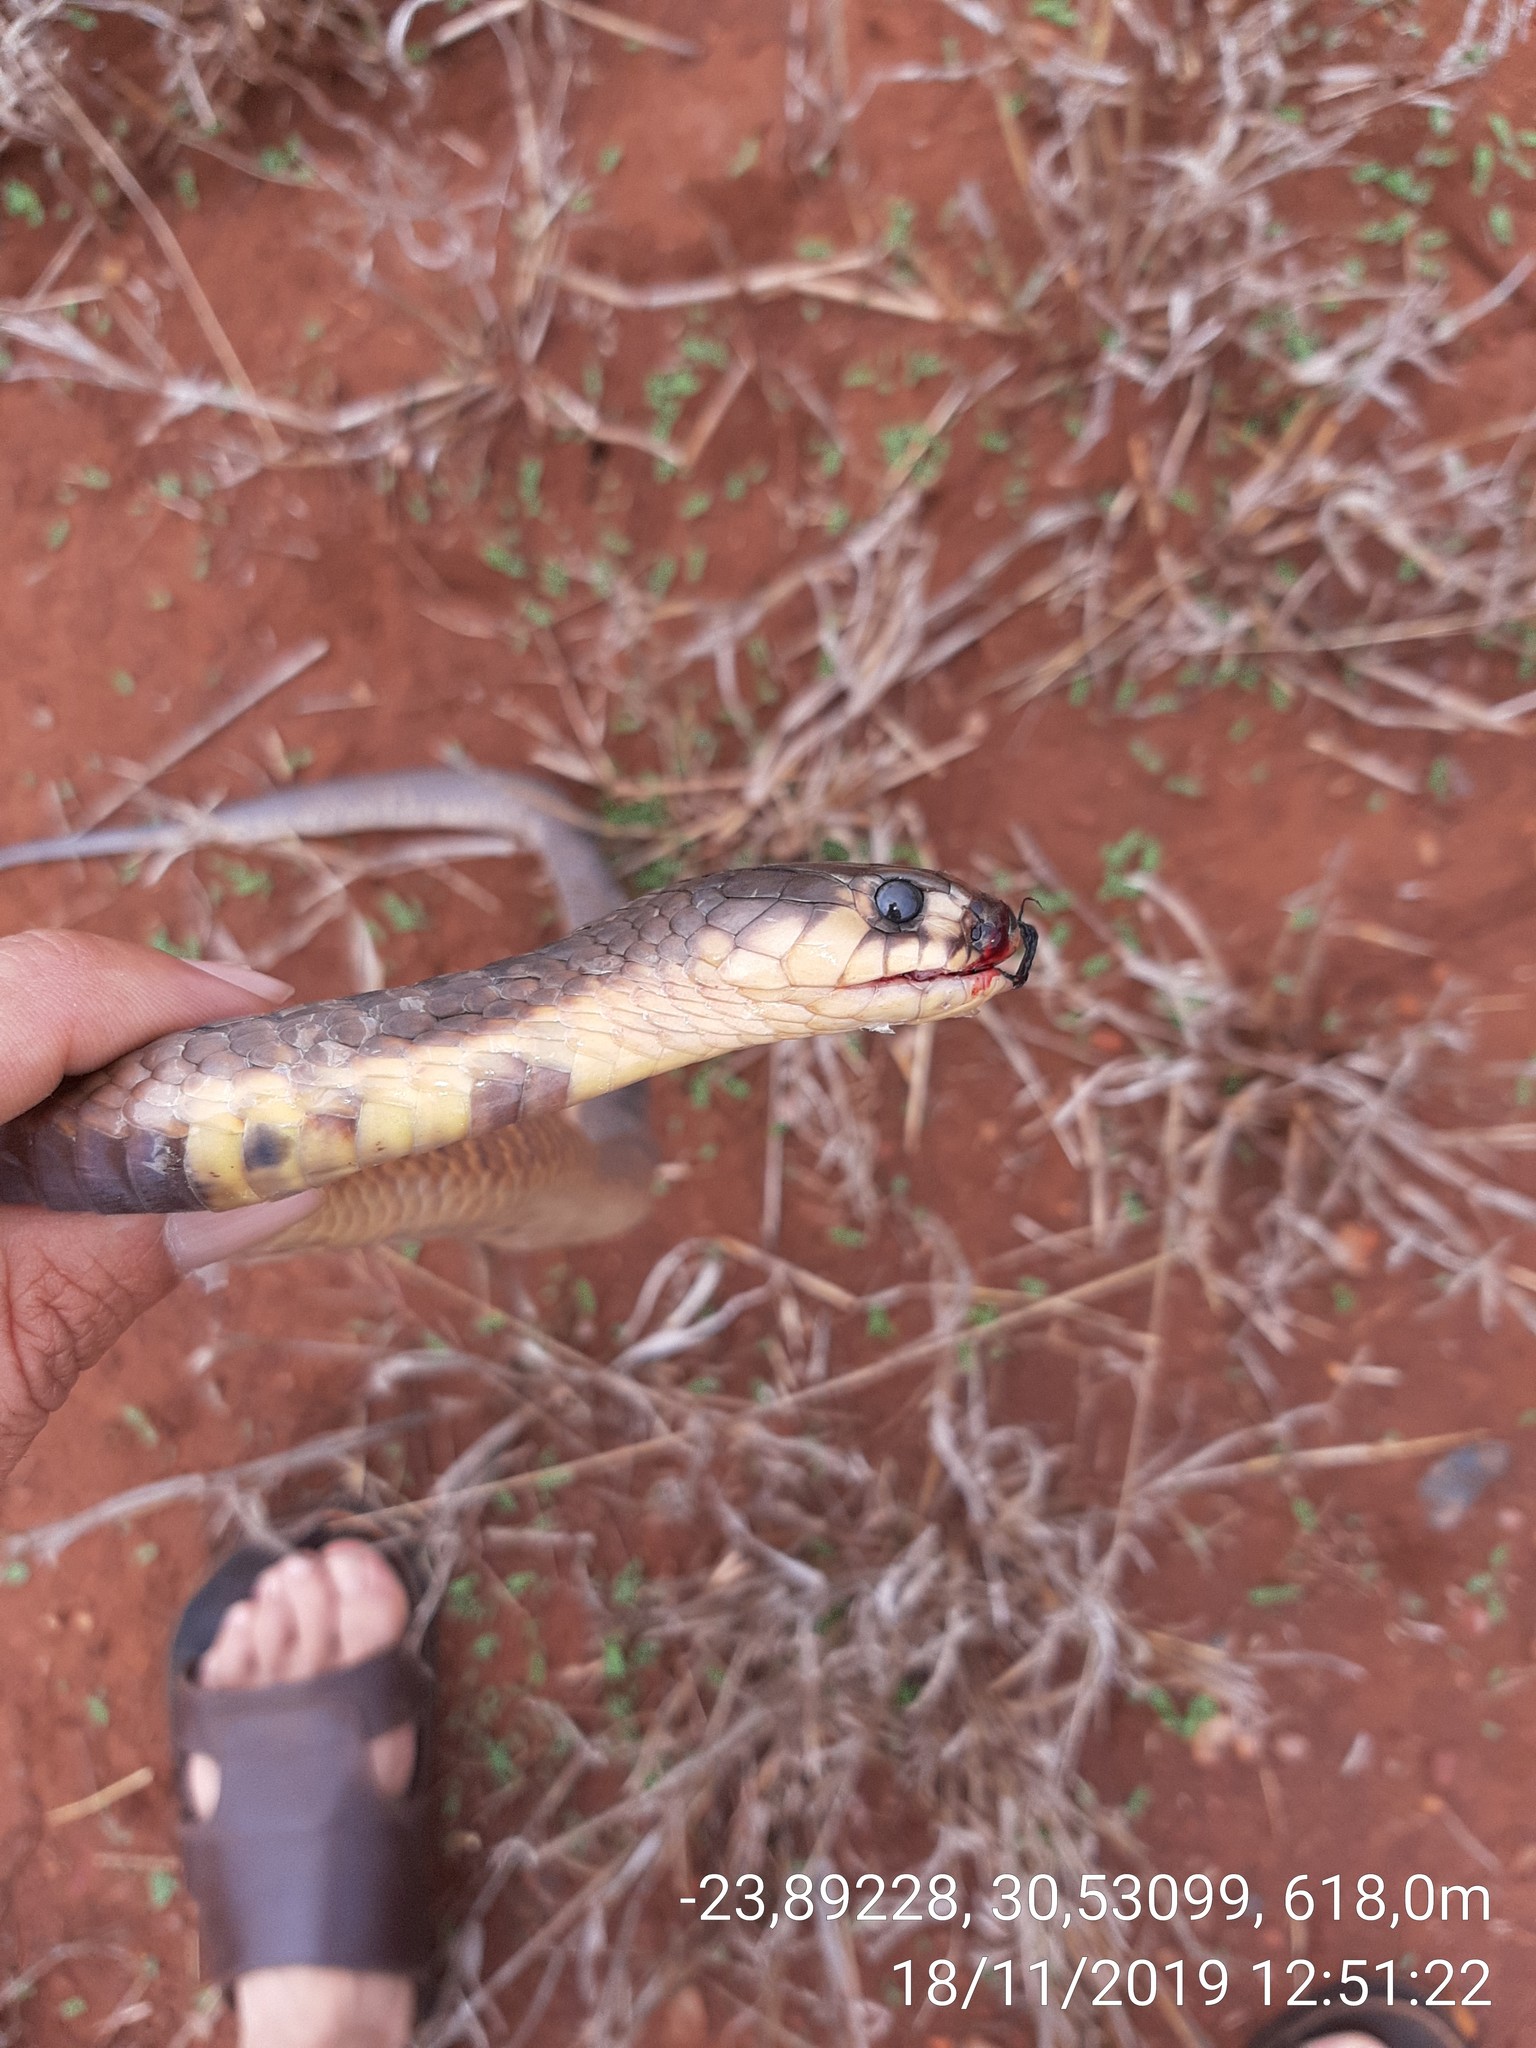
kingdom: Animalia
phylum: Chordata
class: Squamata
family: Elapidae
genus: Naja
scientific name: Naja annulifera
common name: Snouted cobra
